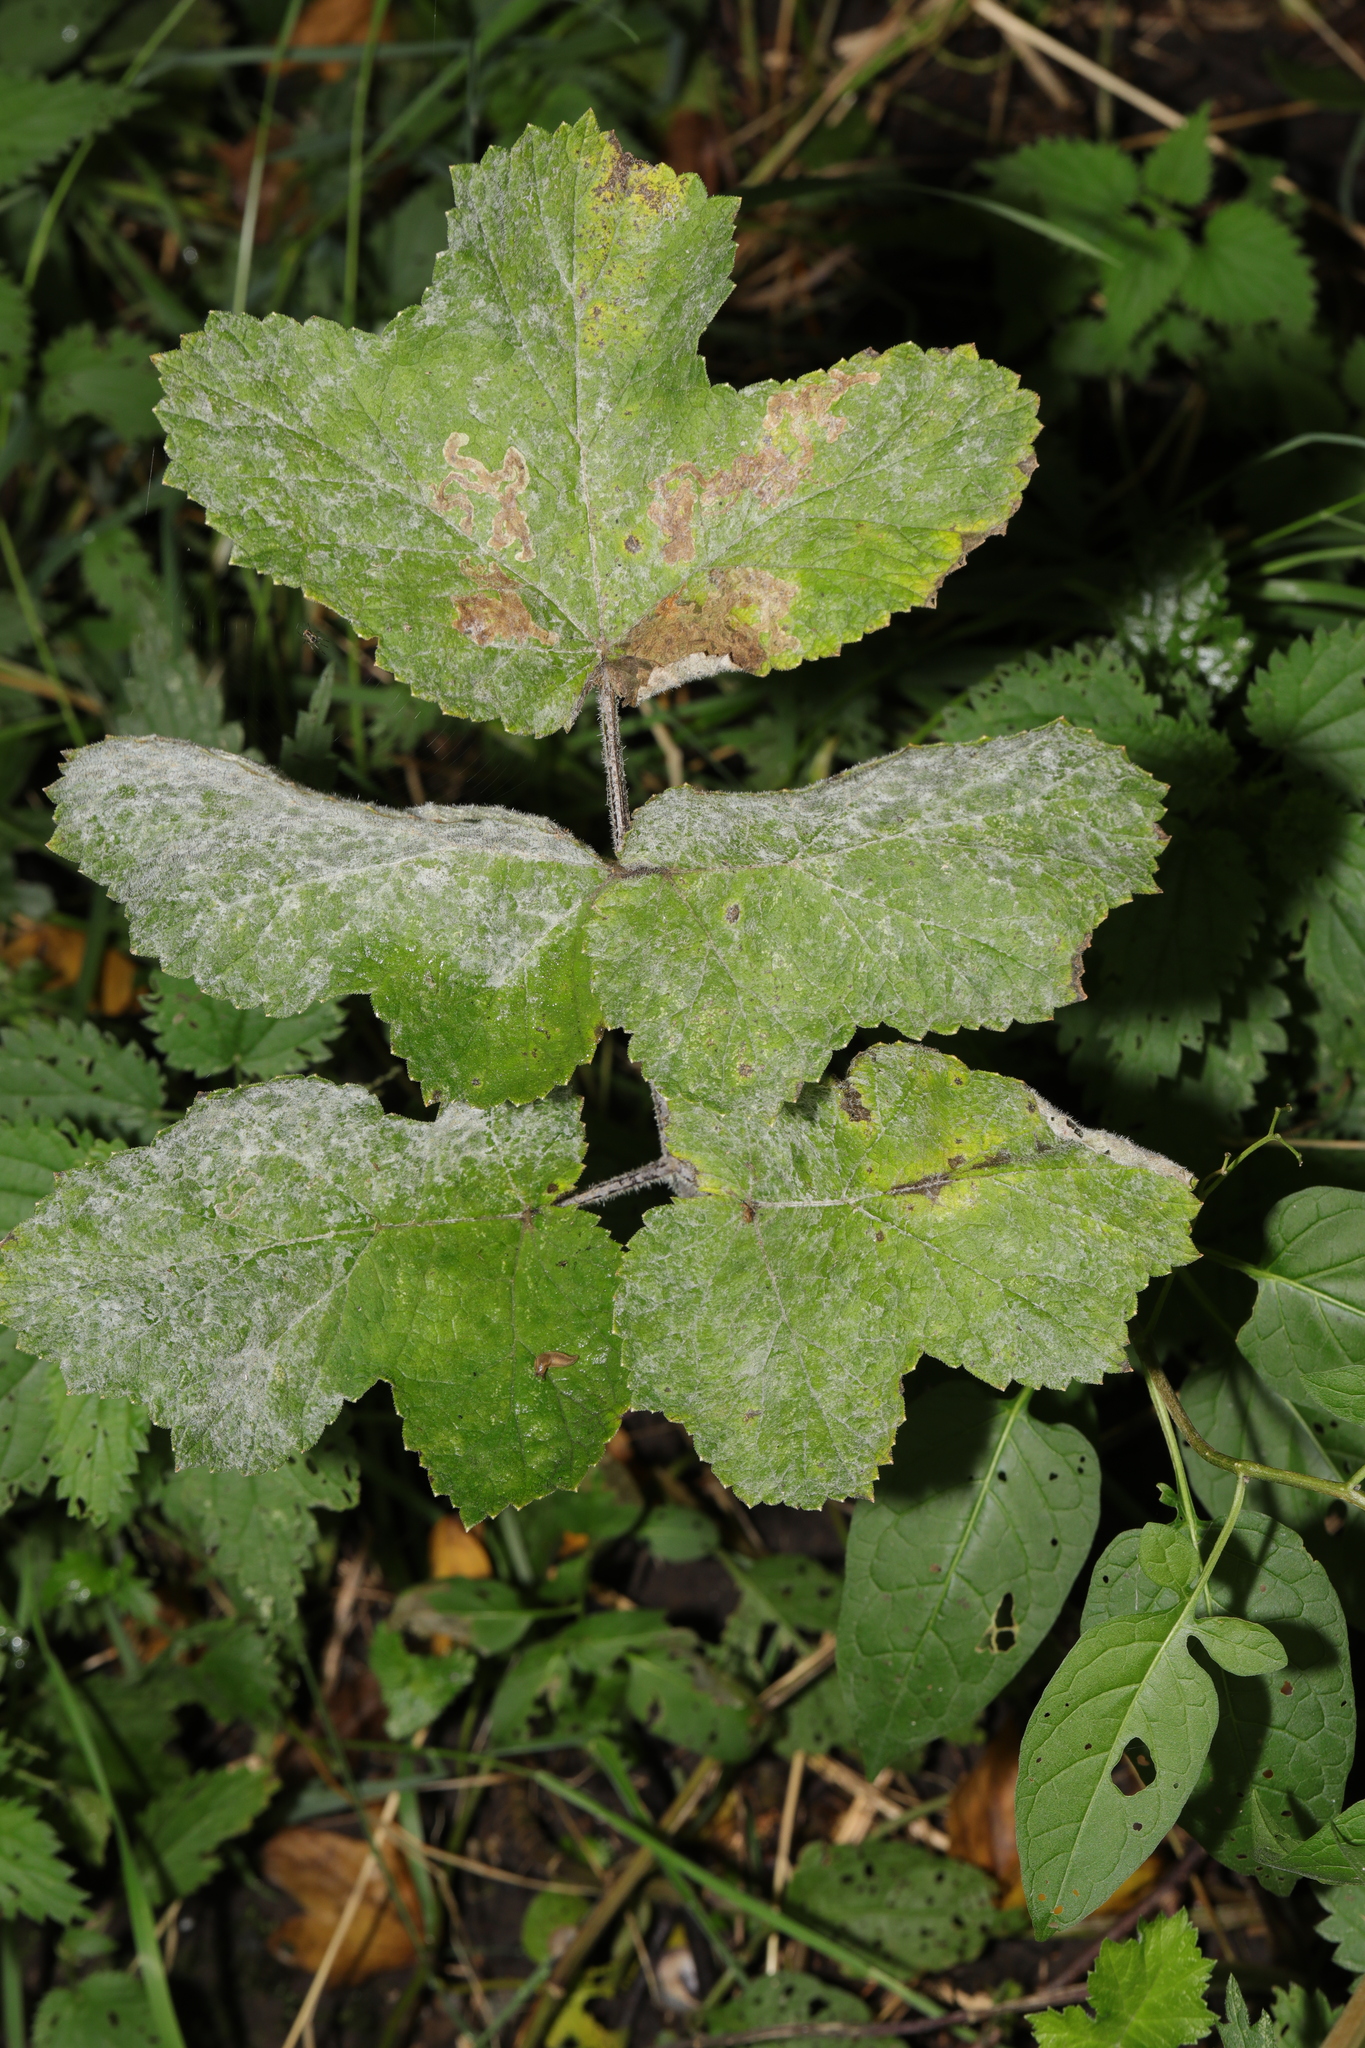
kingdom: Fungi
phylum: Ascomycota
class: Leotiomycetes
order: Helotiales
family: Erysiphaceae
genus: Erysiphe
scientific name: Erysiphe heraclei
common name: Umbellifer mildew
